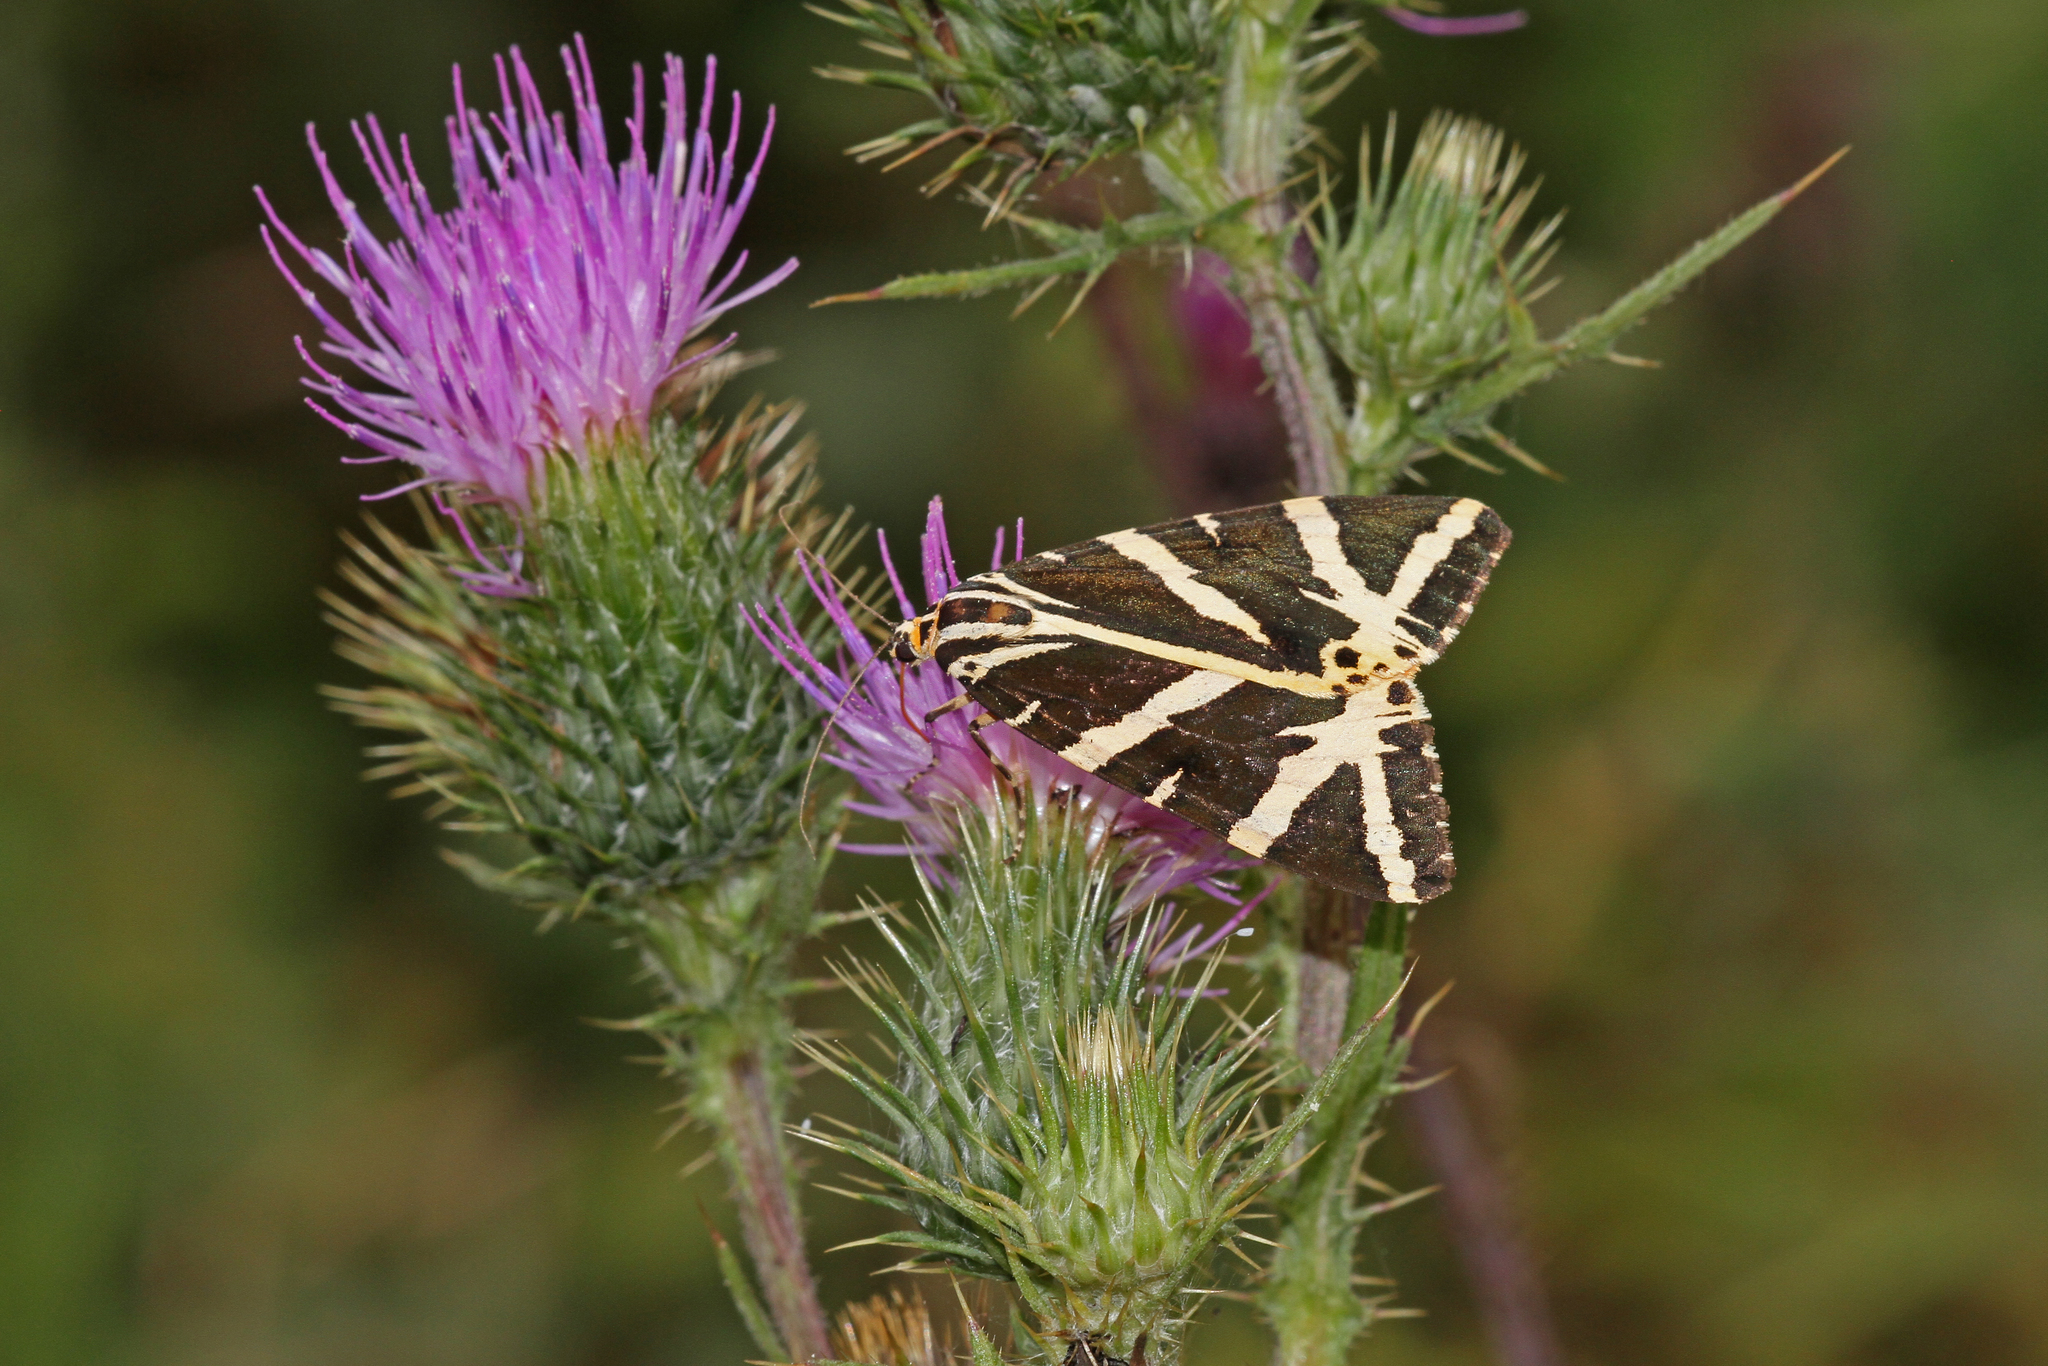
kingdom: Animalia
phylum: Arthropoda
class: Insecta
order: Lepidoptera
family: Erebidae
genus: Euplagia
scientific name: Euplagia quadripunctaria
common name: Jersey tiger
